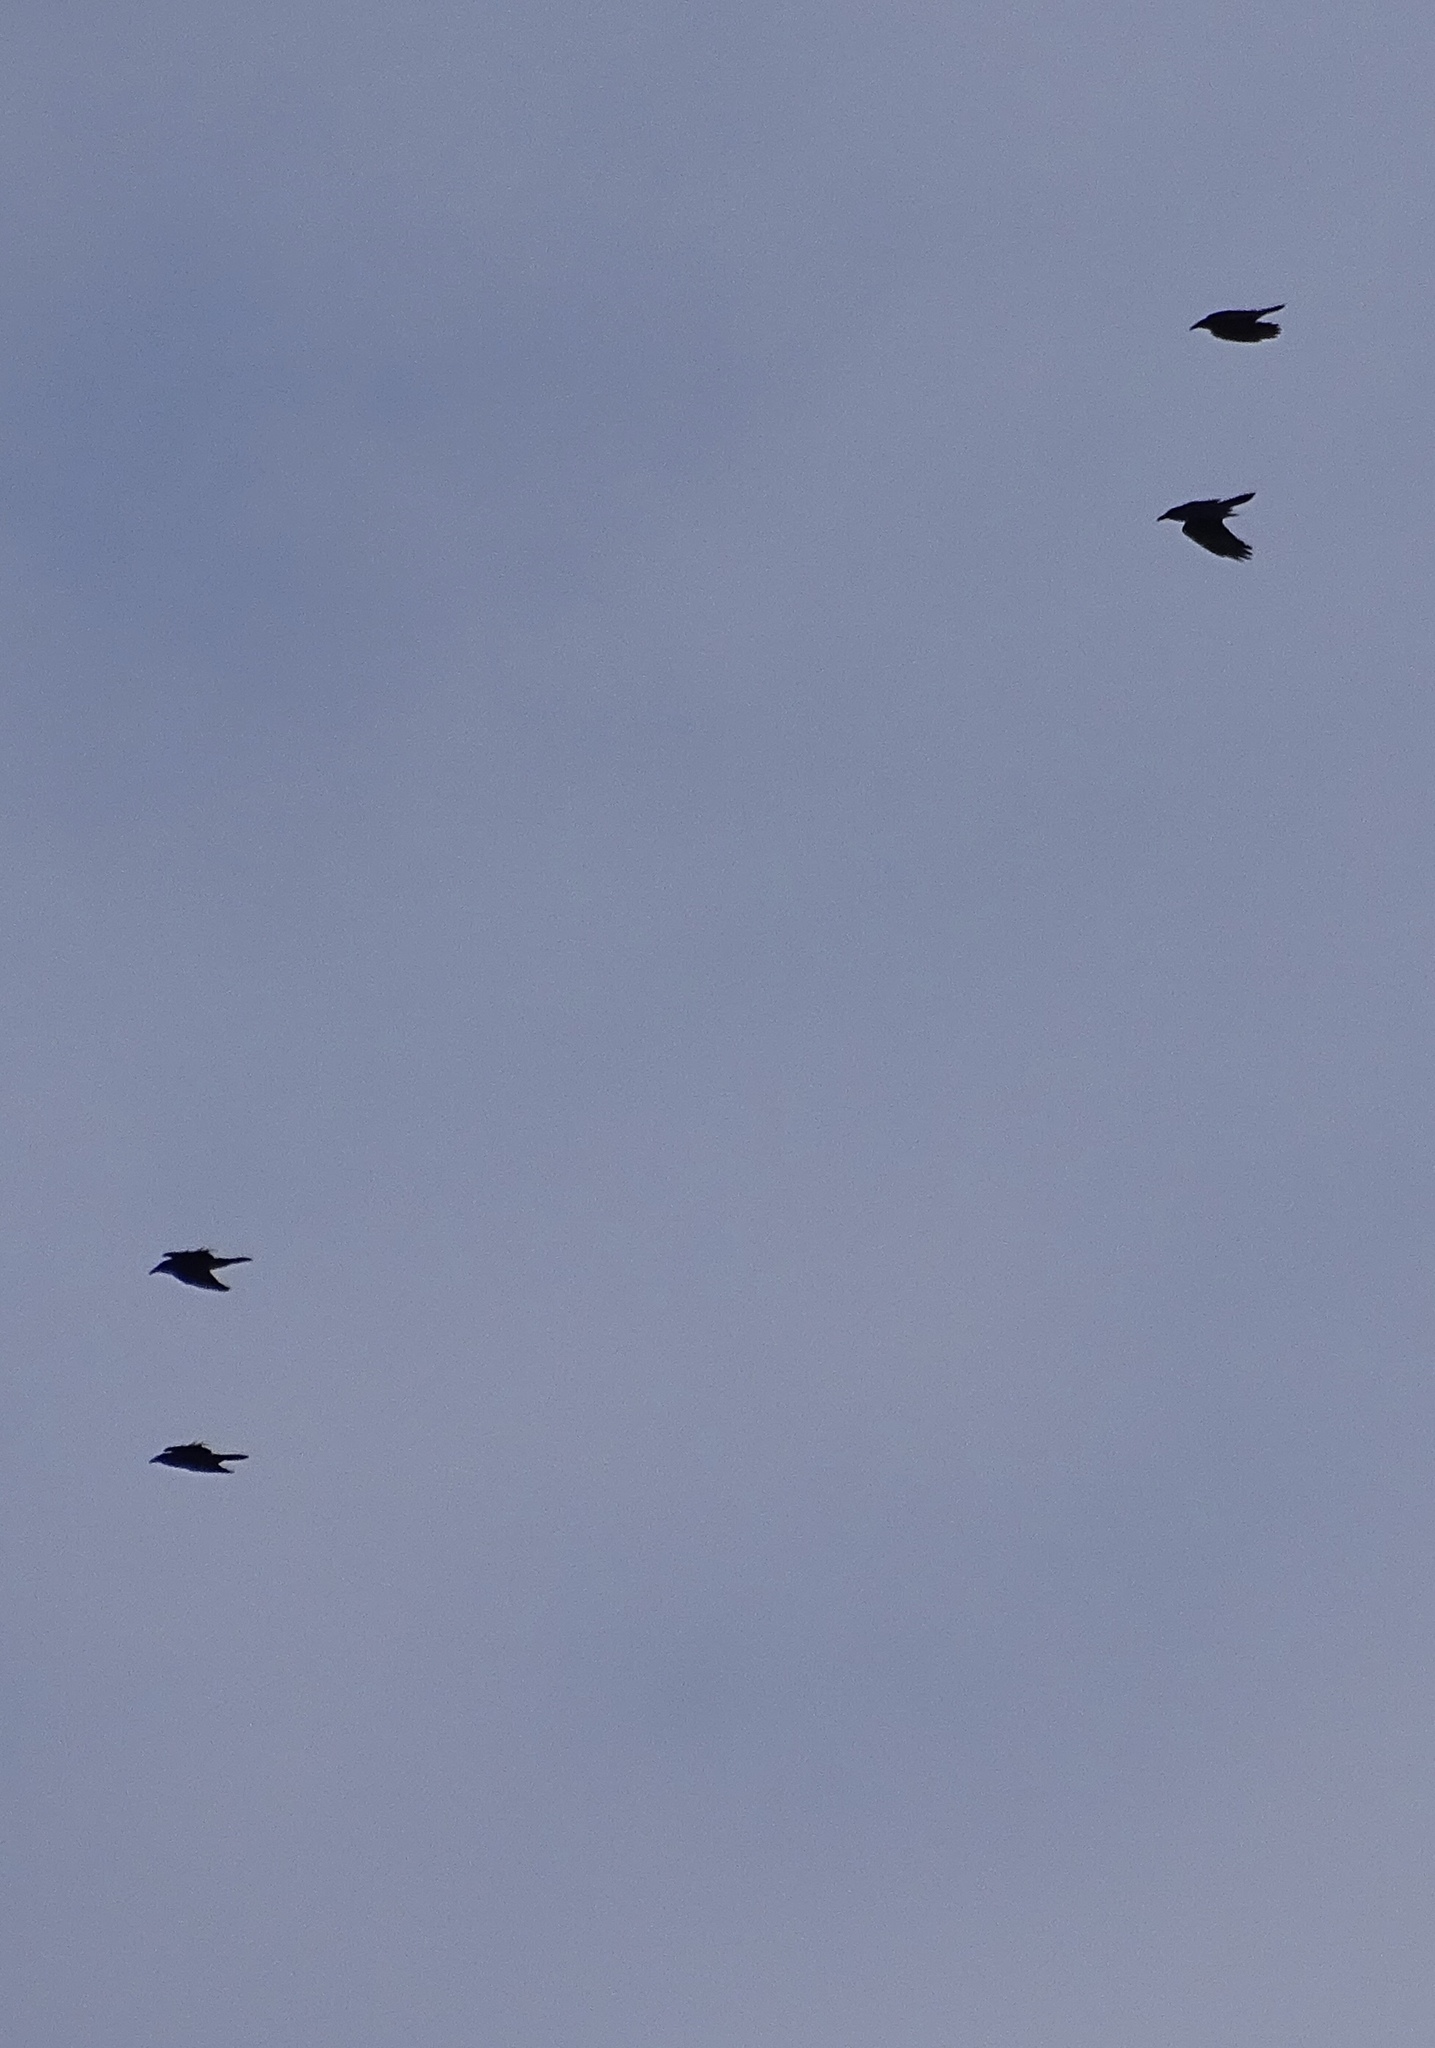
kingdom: Animalia
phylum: Chordata
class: Aves
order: Passeriformes
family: Corvidae
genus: Corvus
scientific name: Corvus corax
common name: Common raven
